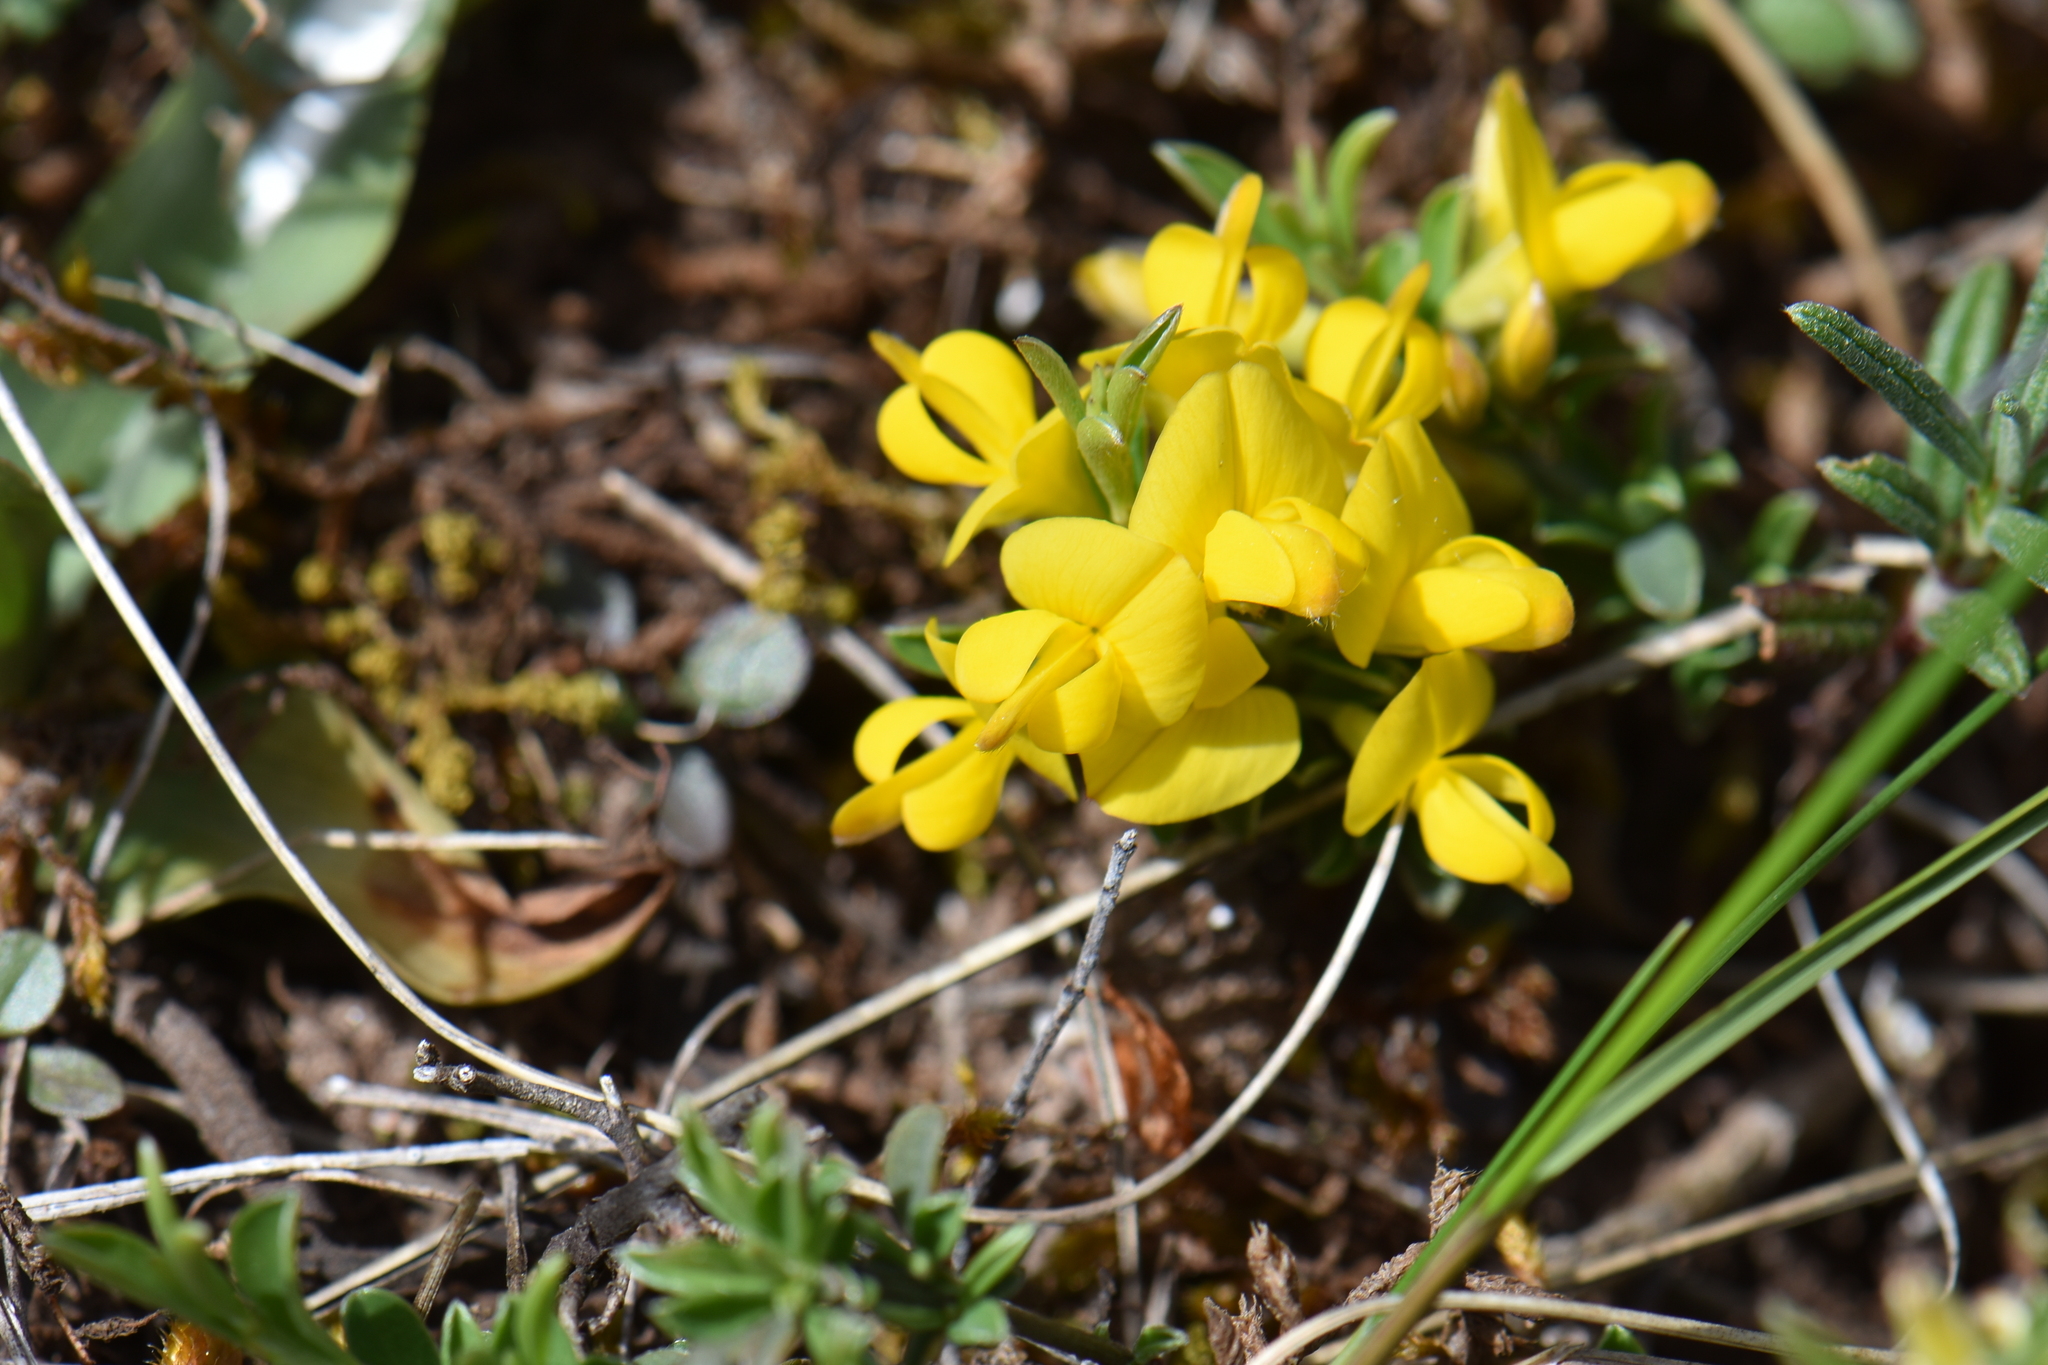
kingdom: Plantae
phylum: Tracheophyta
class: Magnoliopsida
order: Fabales
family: Fabaceae
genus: Genista
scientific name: Genista pilosa
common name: Hairy greenweed
